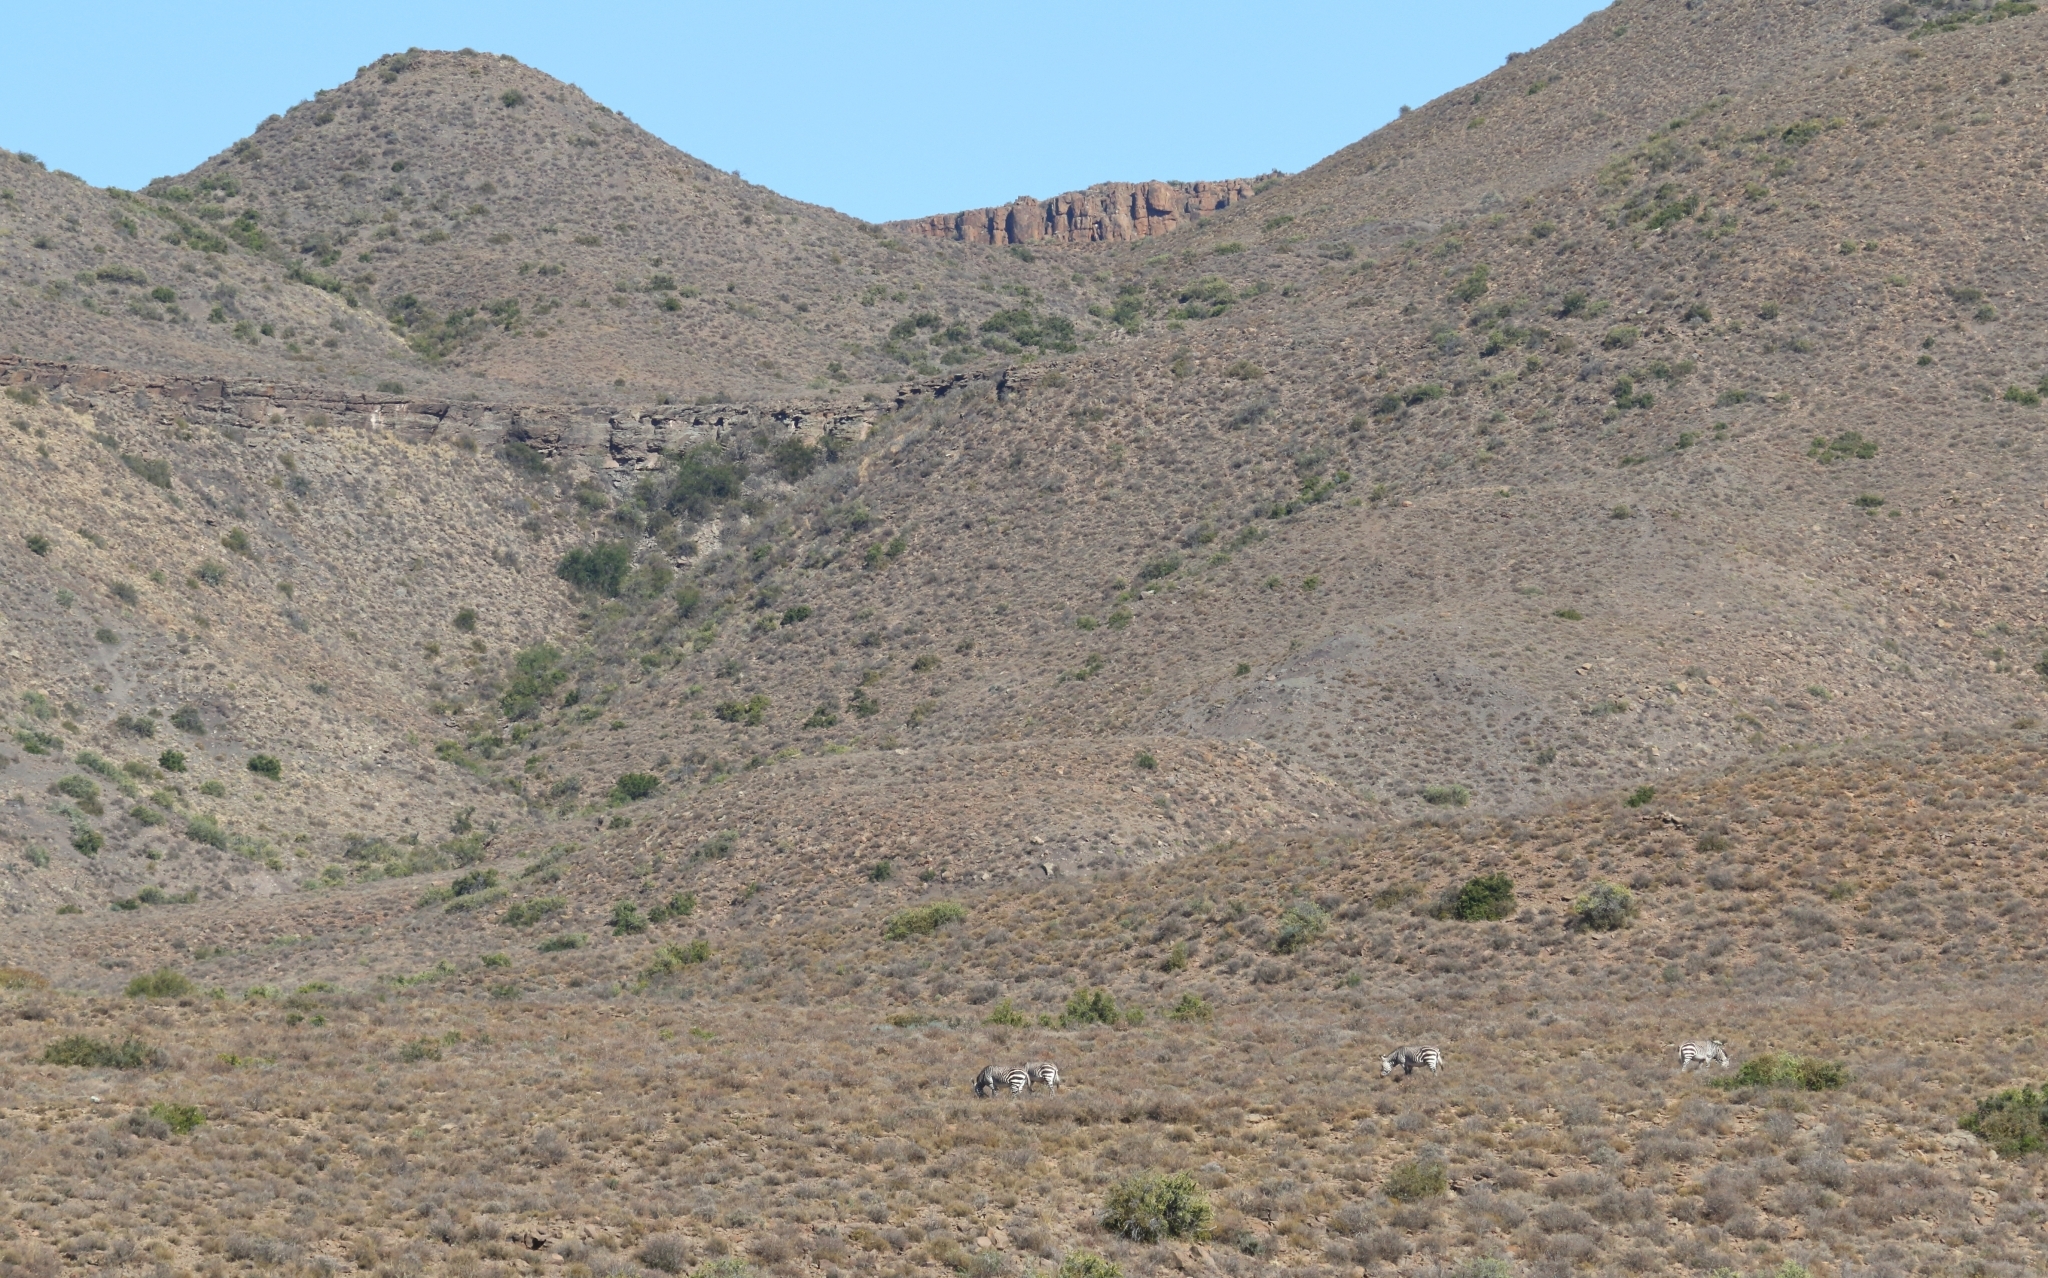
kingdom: Animalia
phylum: Chordata
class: Mammalia
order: Perissodactyla
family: Equidae
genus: Equus
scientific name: Equus zebra
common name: Mountain zebra
